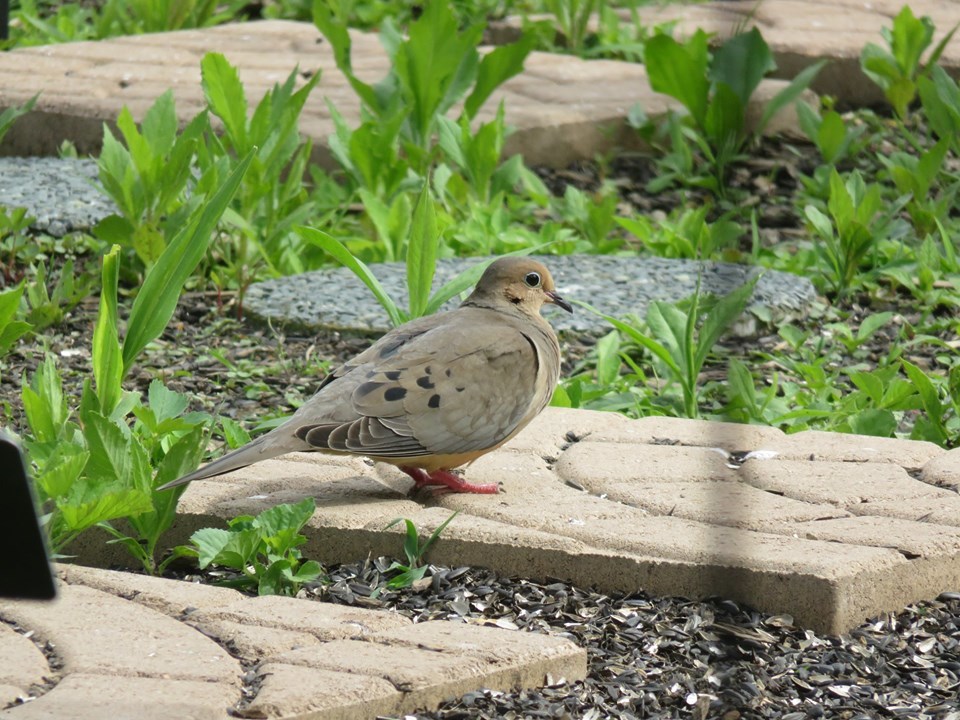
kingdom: Animalia
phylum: Chordata
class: Aves
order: Columbiformes
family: Columbidae
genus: Zenaida
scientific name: Zenaida macroura
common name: Mourning dove
